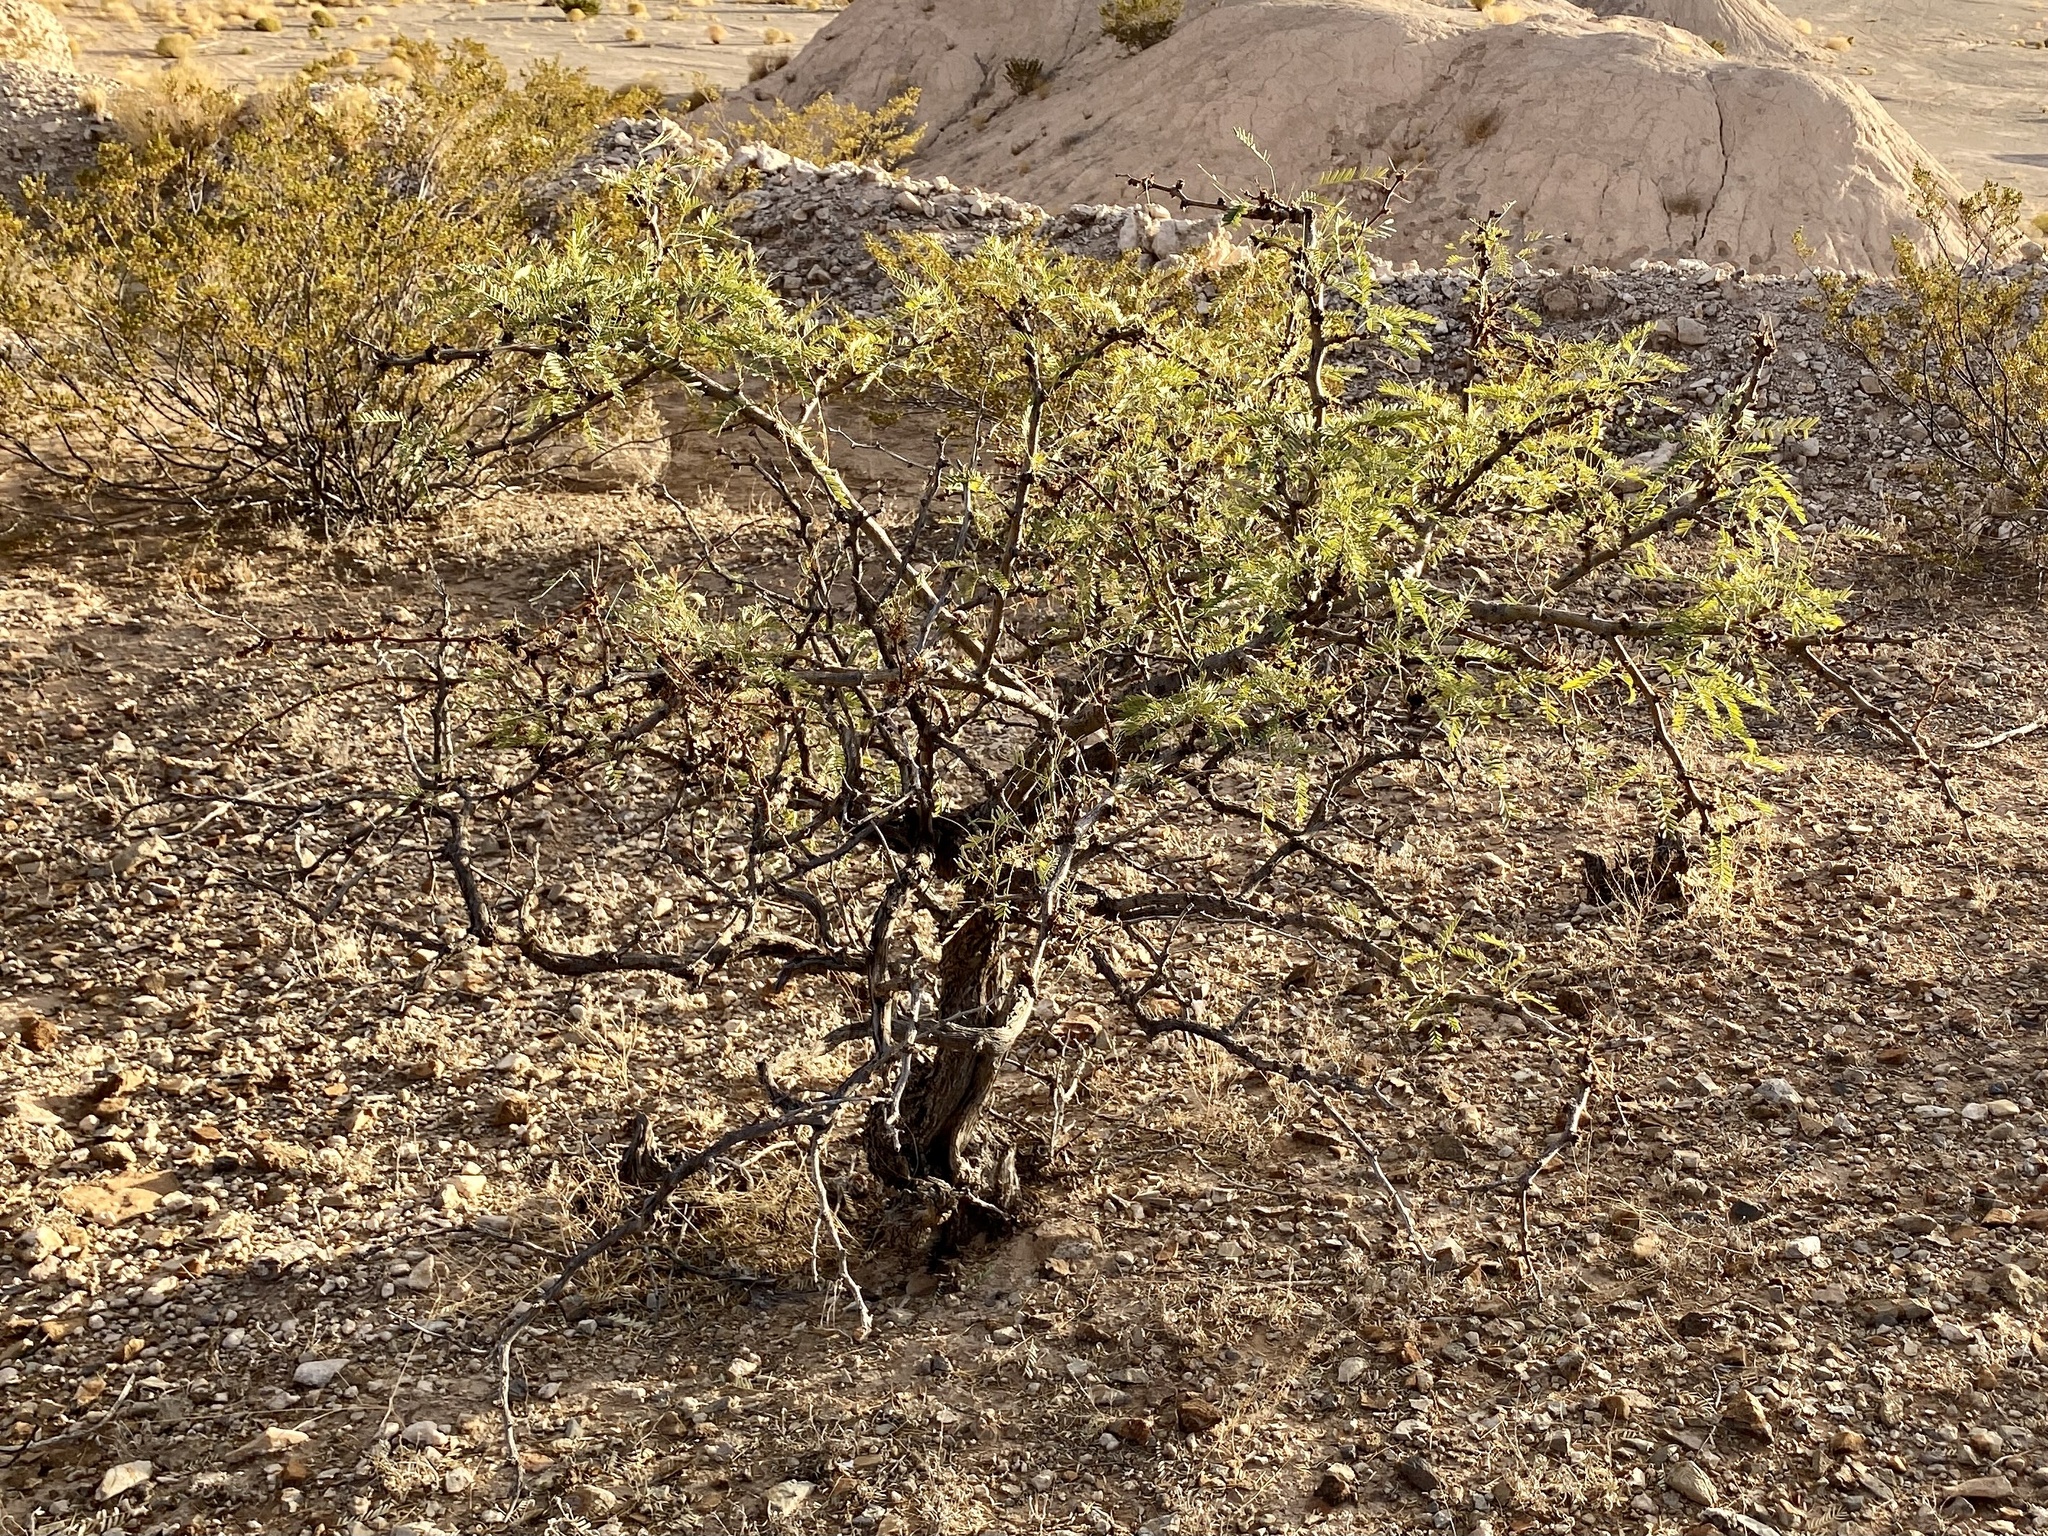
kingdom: Plantae
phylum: Tracheophyta
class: Magnoliopsida
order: Fabales
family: Fabaceae
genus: Prosopis
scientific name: Prosopis glandulosa
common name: Honey mesquite
